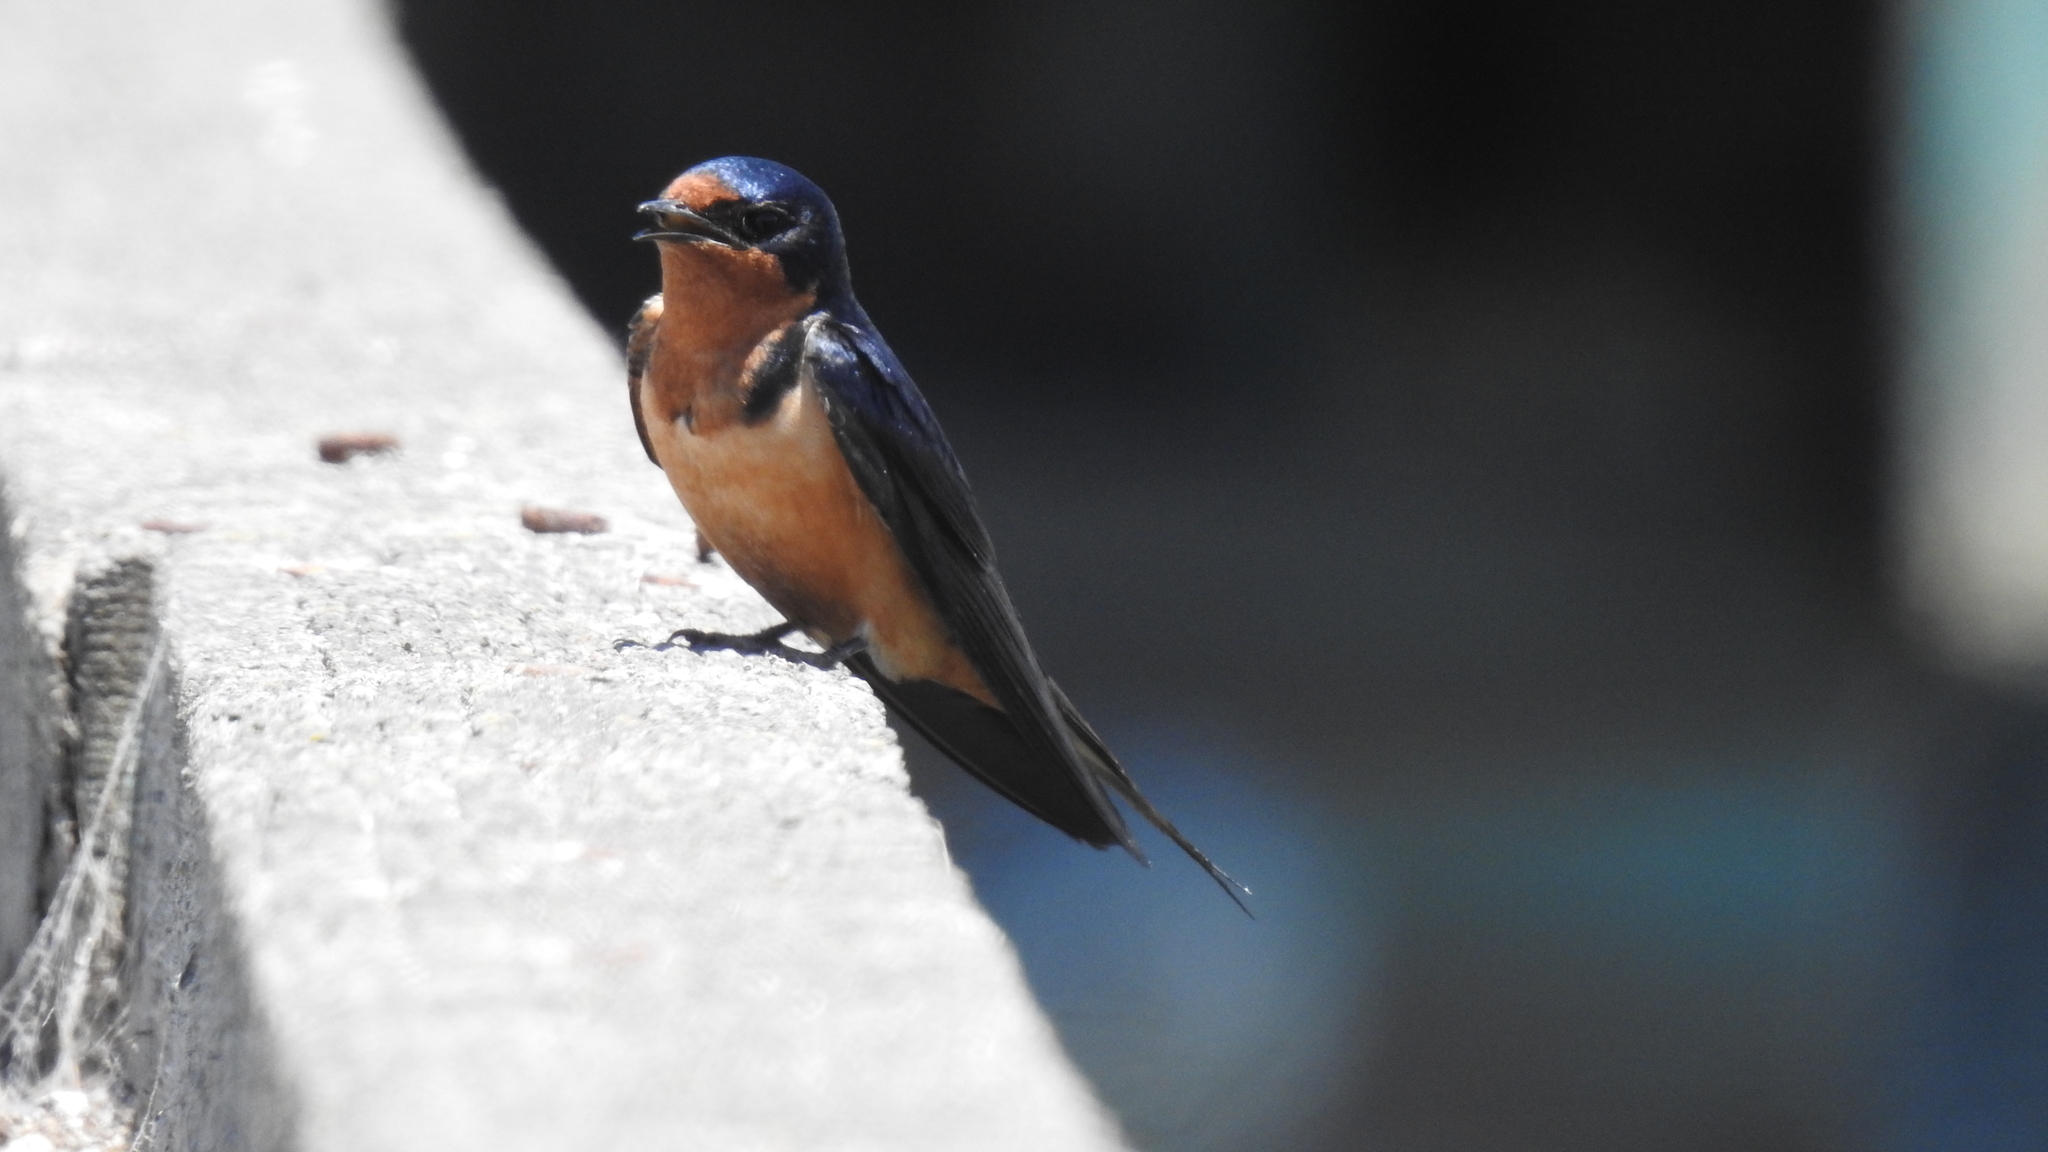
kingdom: Animalia
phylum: Chordata
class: Aves
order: Passeriformes
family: Hirundinidae
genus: Hirundo
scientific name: Hirundo rustica
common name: Barn swallow
